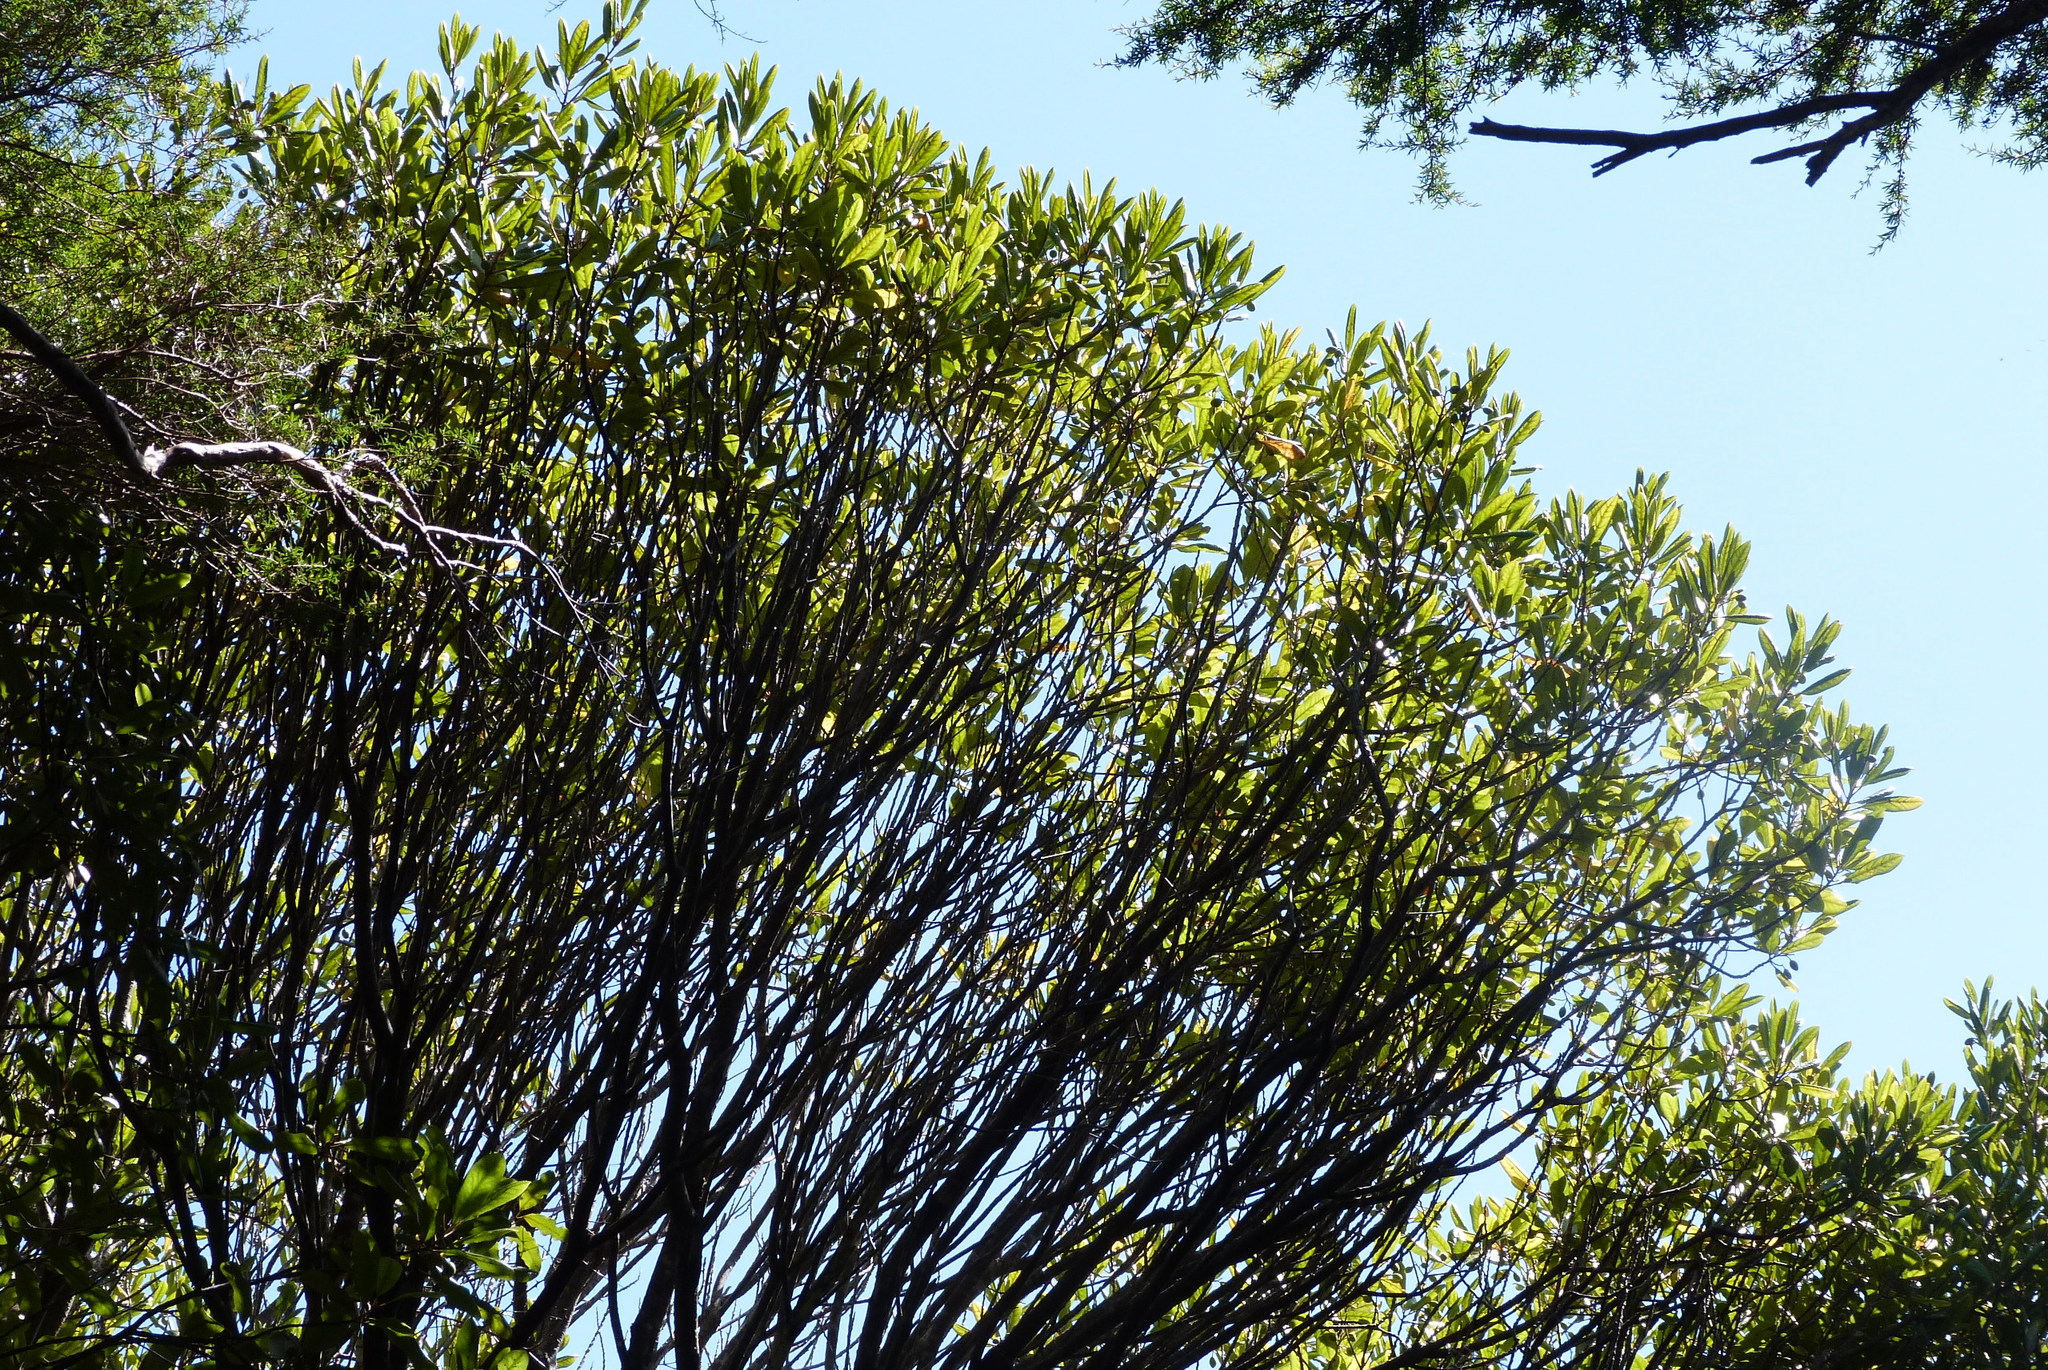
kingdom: Plantae
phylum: Tracheophyta
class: Magnoliopsida
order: Oxalidales
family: Elaeocarpaceae
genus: Elaeocarpus
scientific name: Elaeocarpus dentatus
